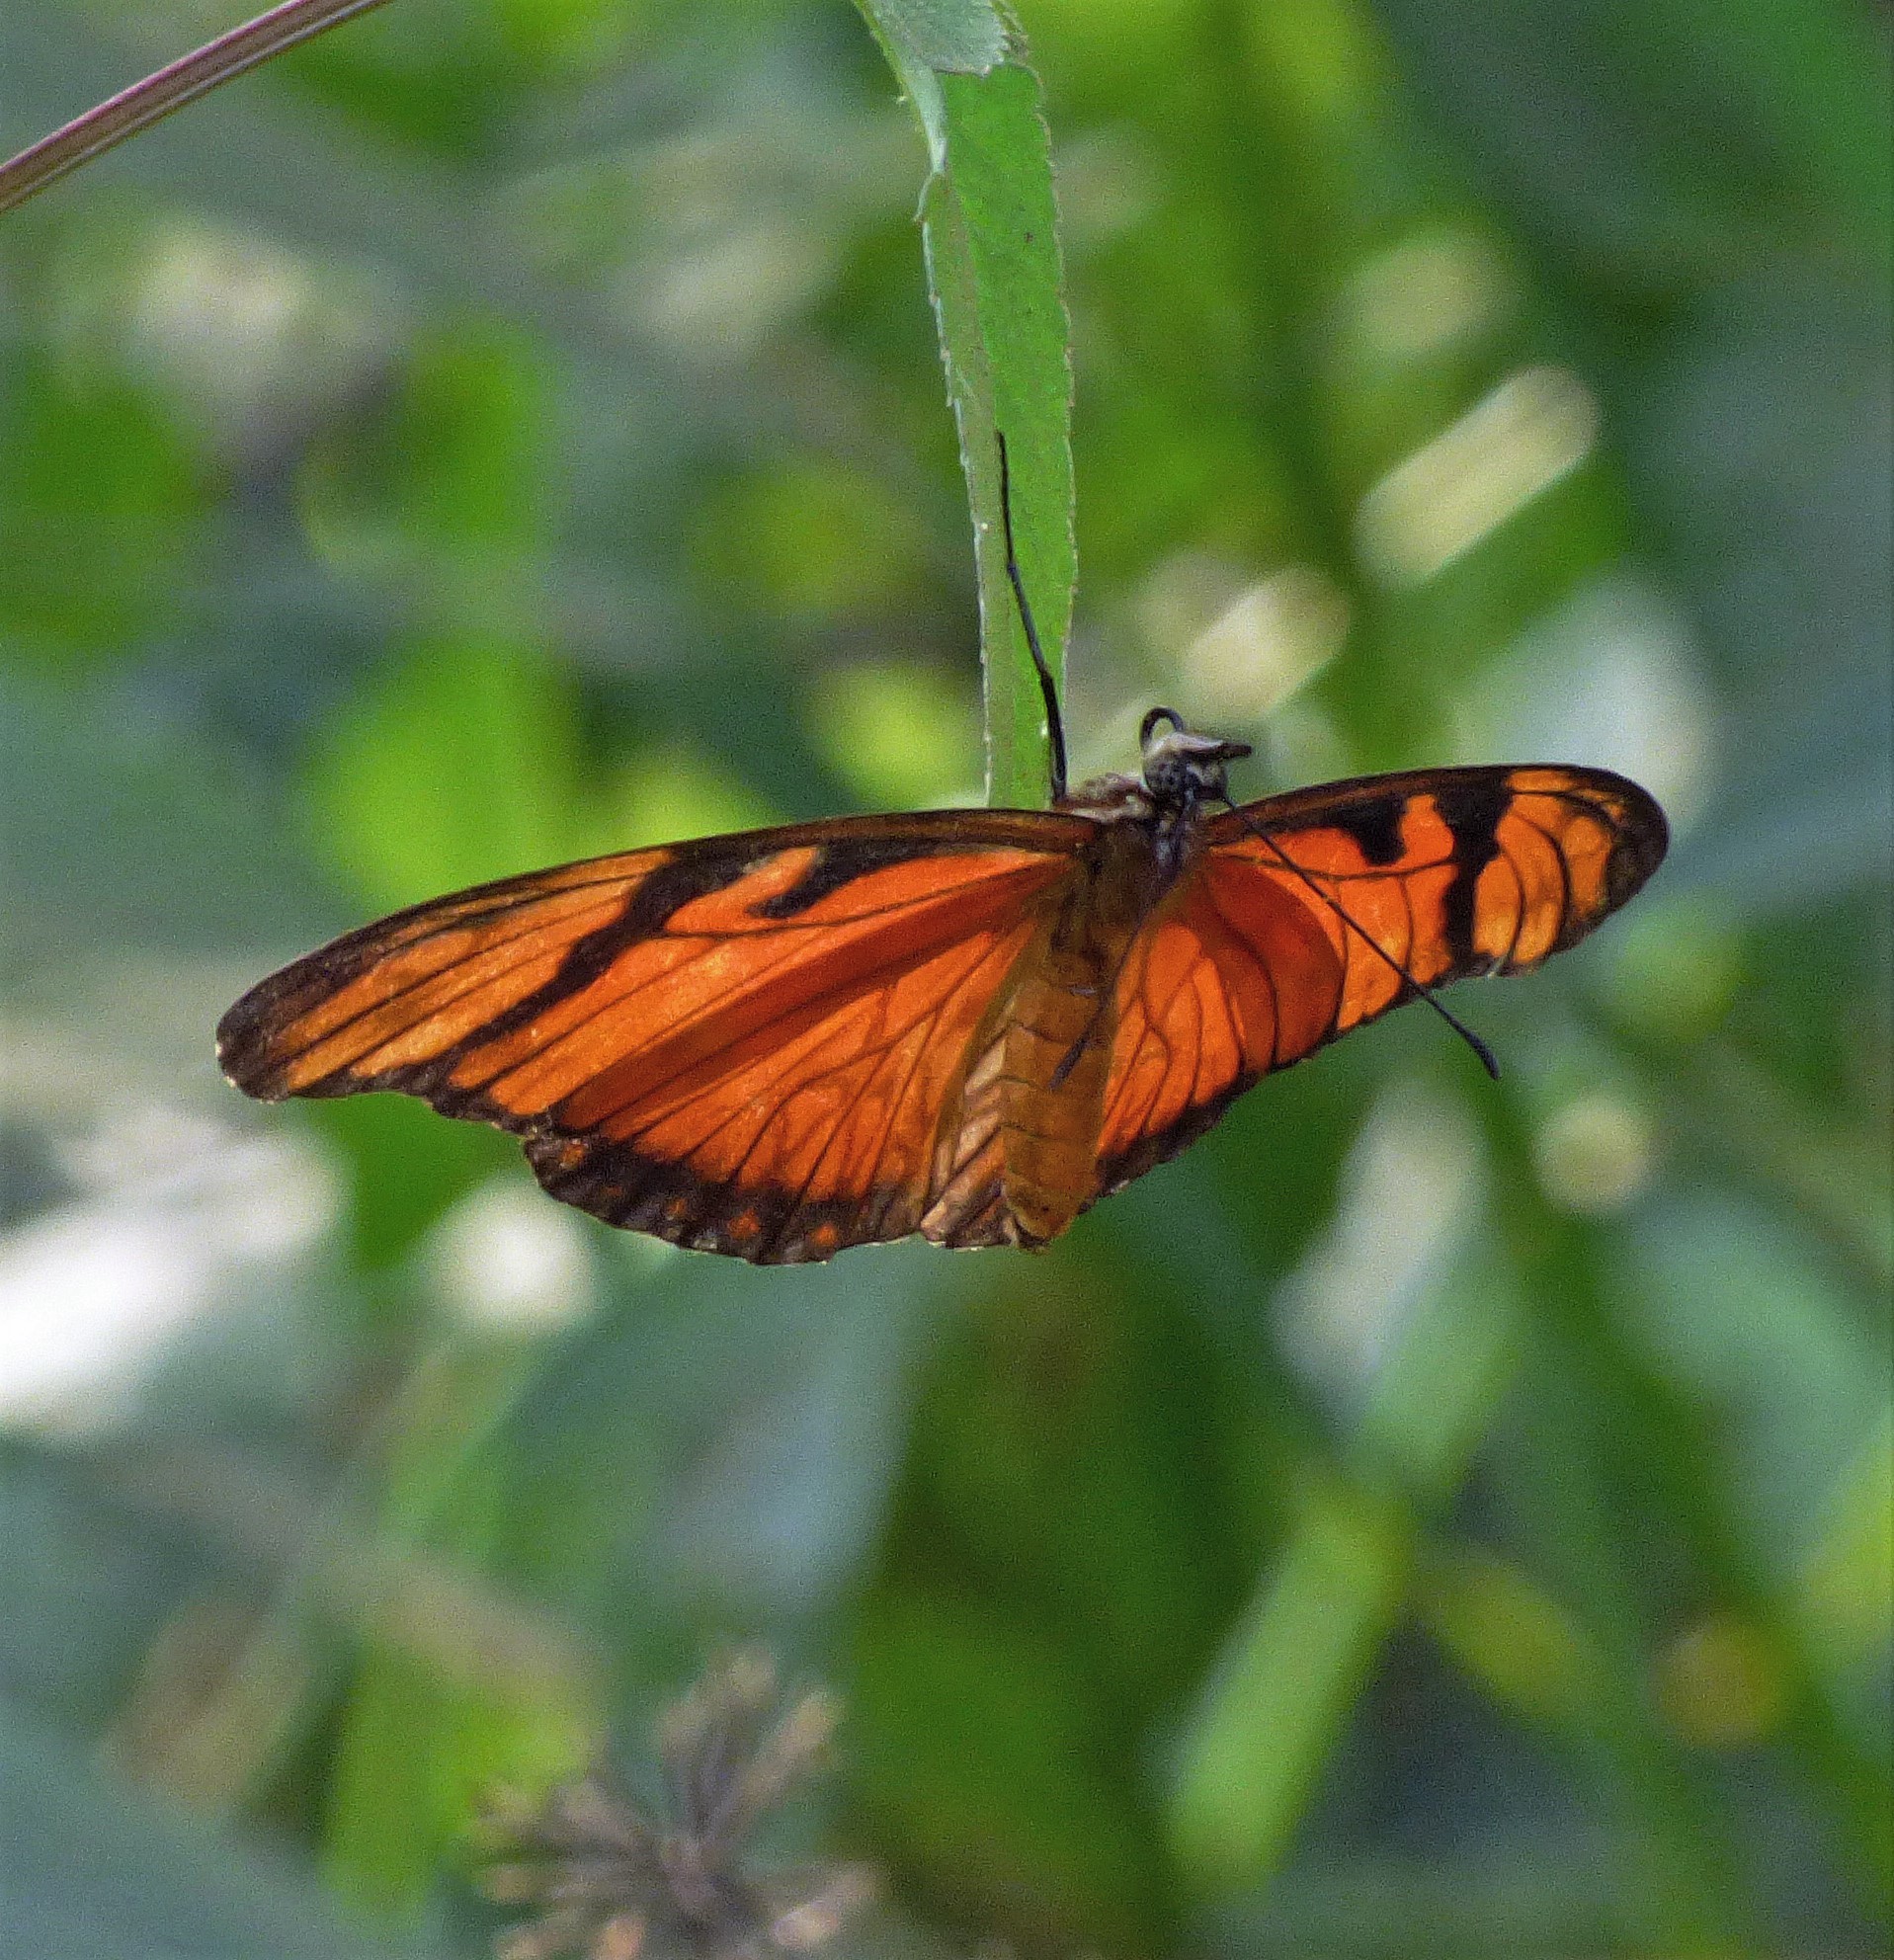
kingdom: Animalia
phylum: Arthropoda
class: Insecta
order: Lepidoptera
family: Nymphalidae
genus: Dione
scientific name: Dione juno
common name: Juno silverspot
